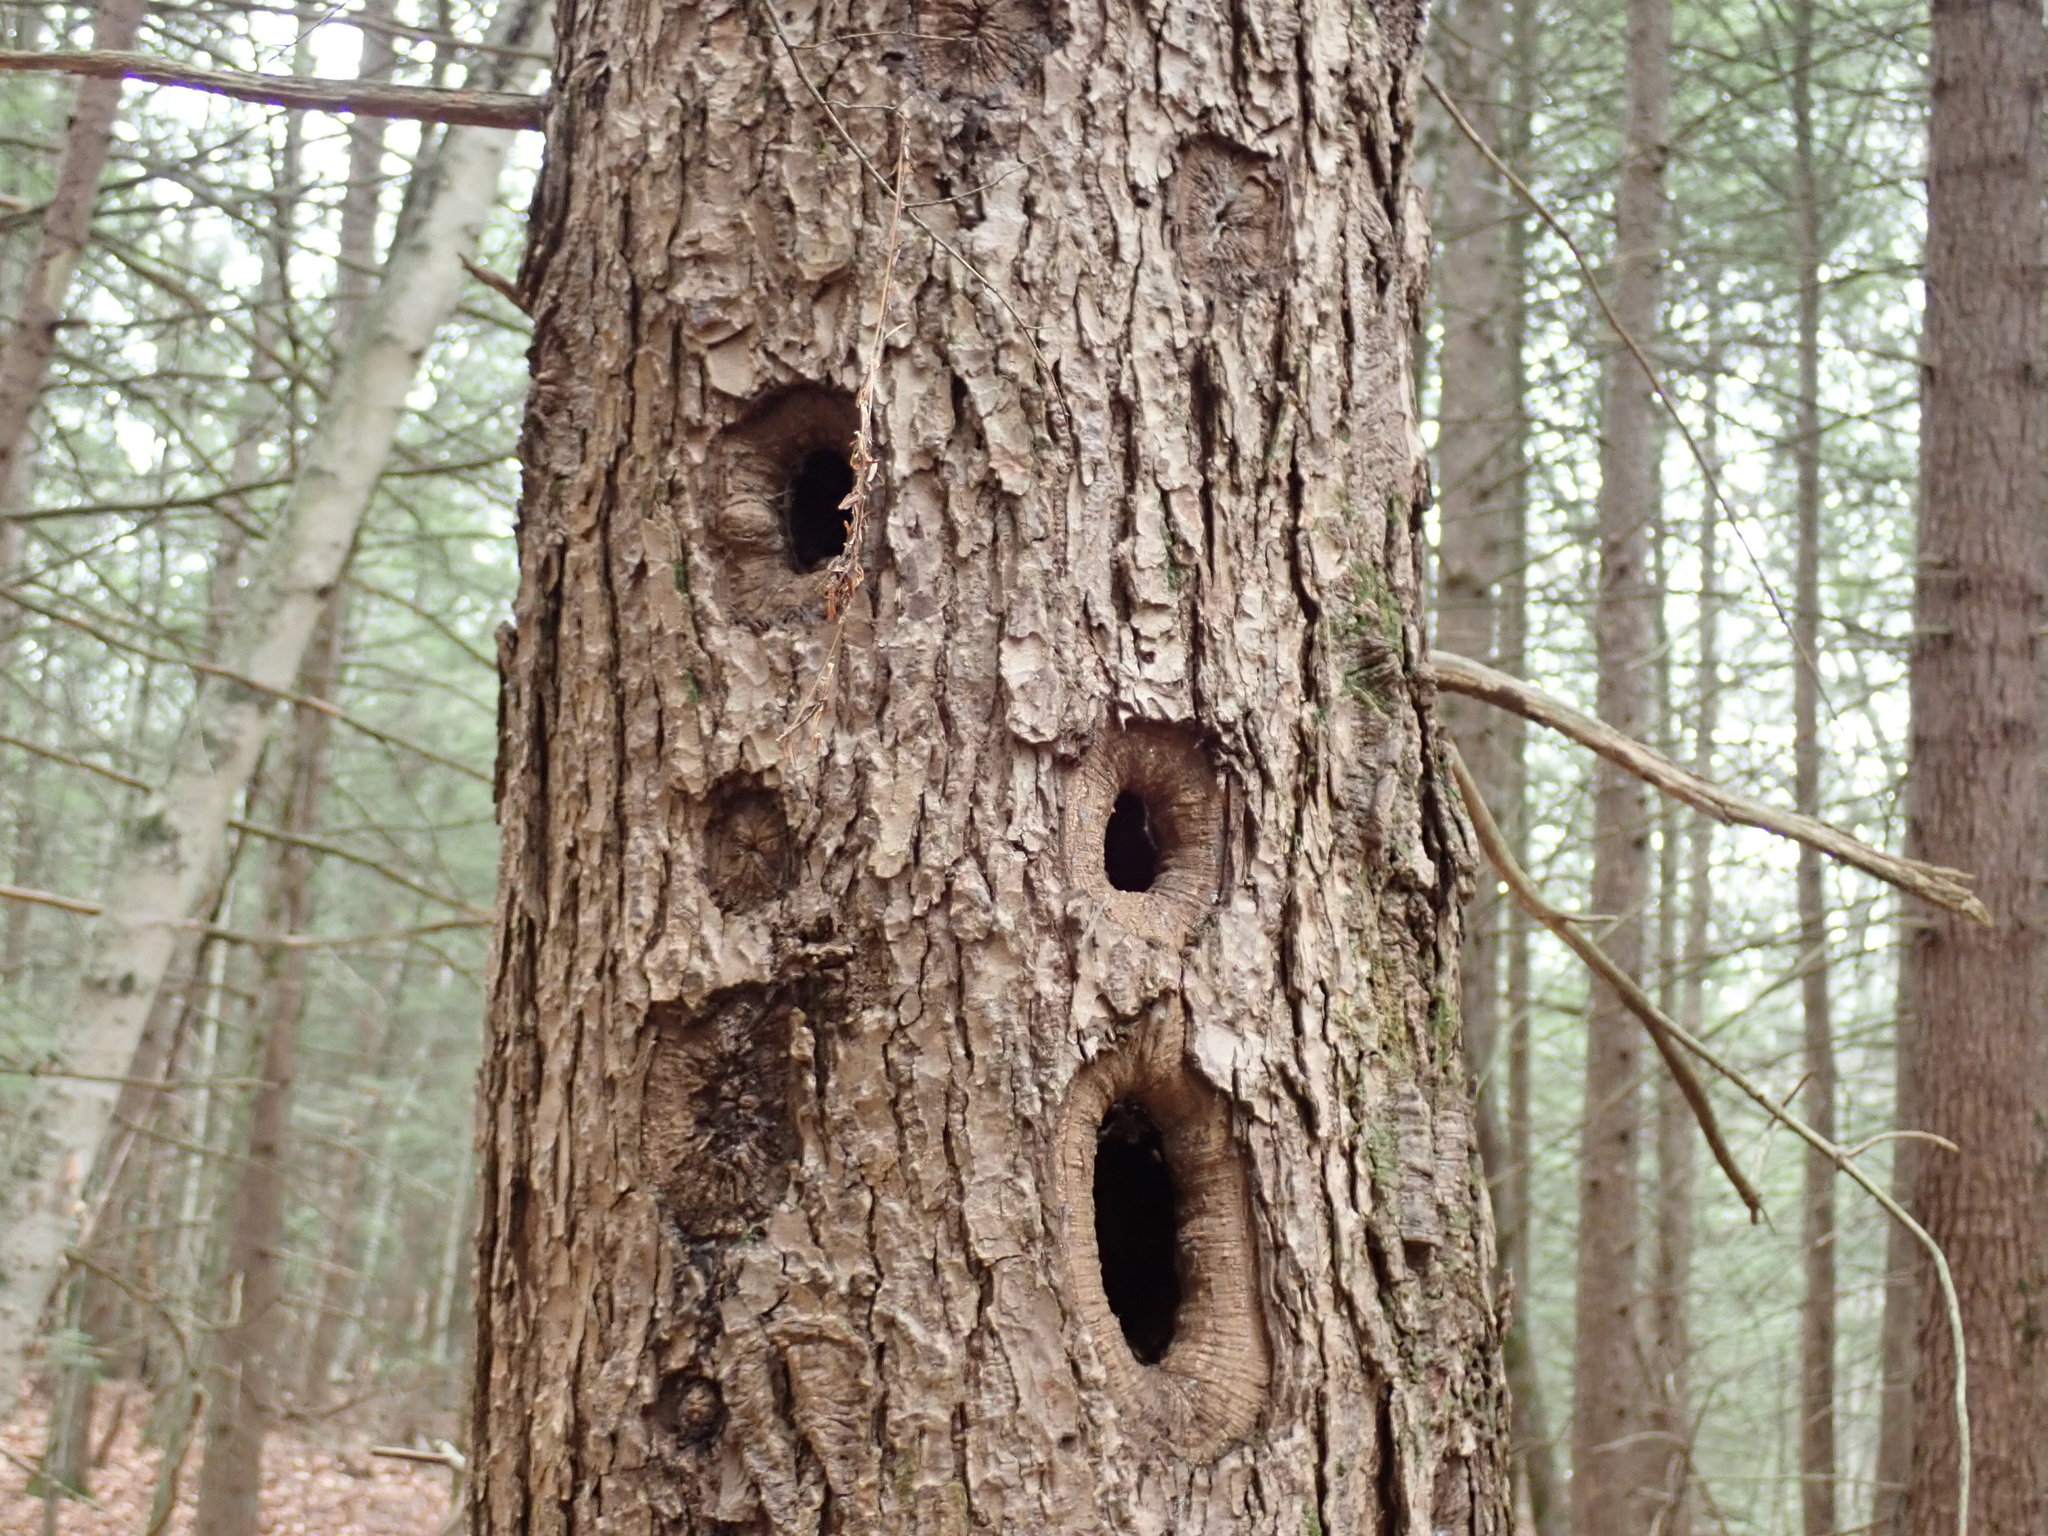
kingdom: Animalia
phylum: Chordata
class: Aves
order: Piciformes
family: Picidae
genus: Dryocopus
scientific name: Dryocopus pileatus
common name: Pileated woodpecker
